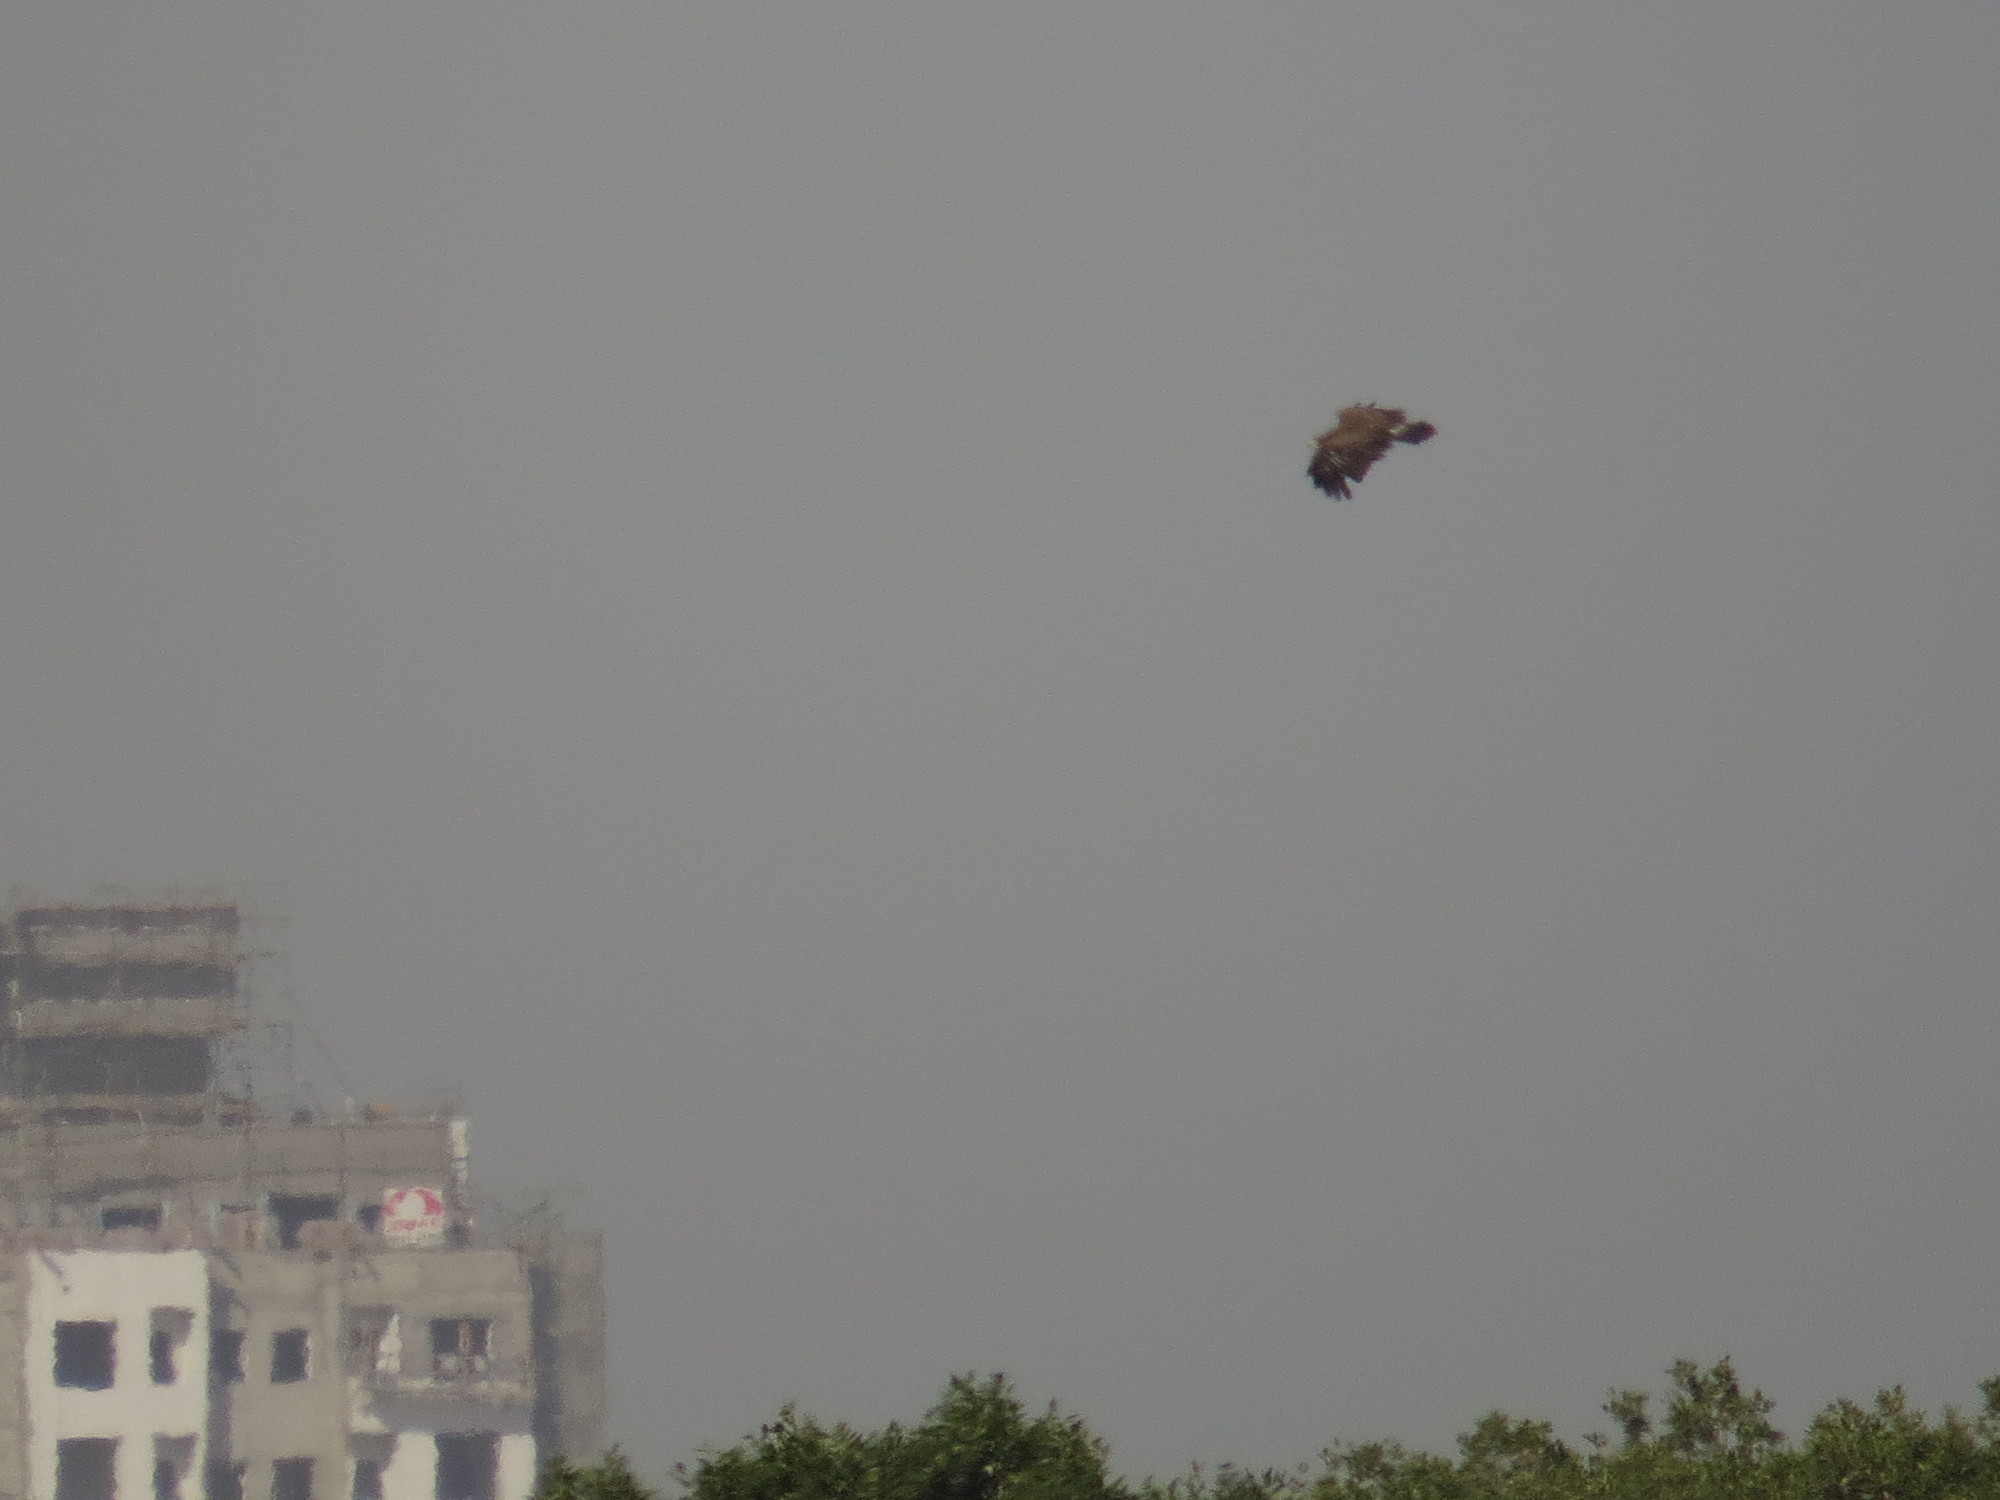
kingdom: Animalia
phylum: Chordata
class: Aves
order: Accipitriformes
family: Accipitridae
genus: Aquila
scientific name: Aquila clanga
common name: Greater spotted eagle
